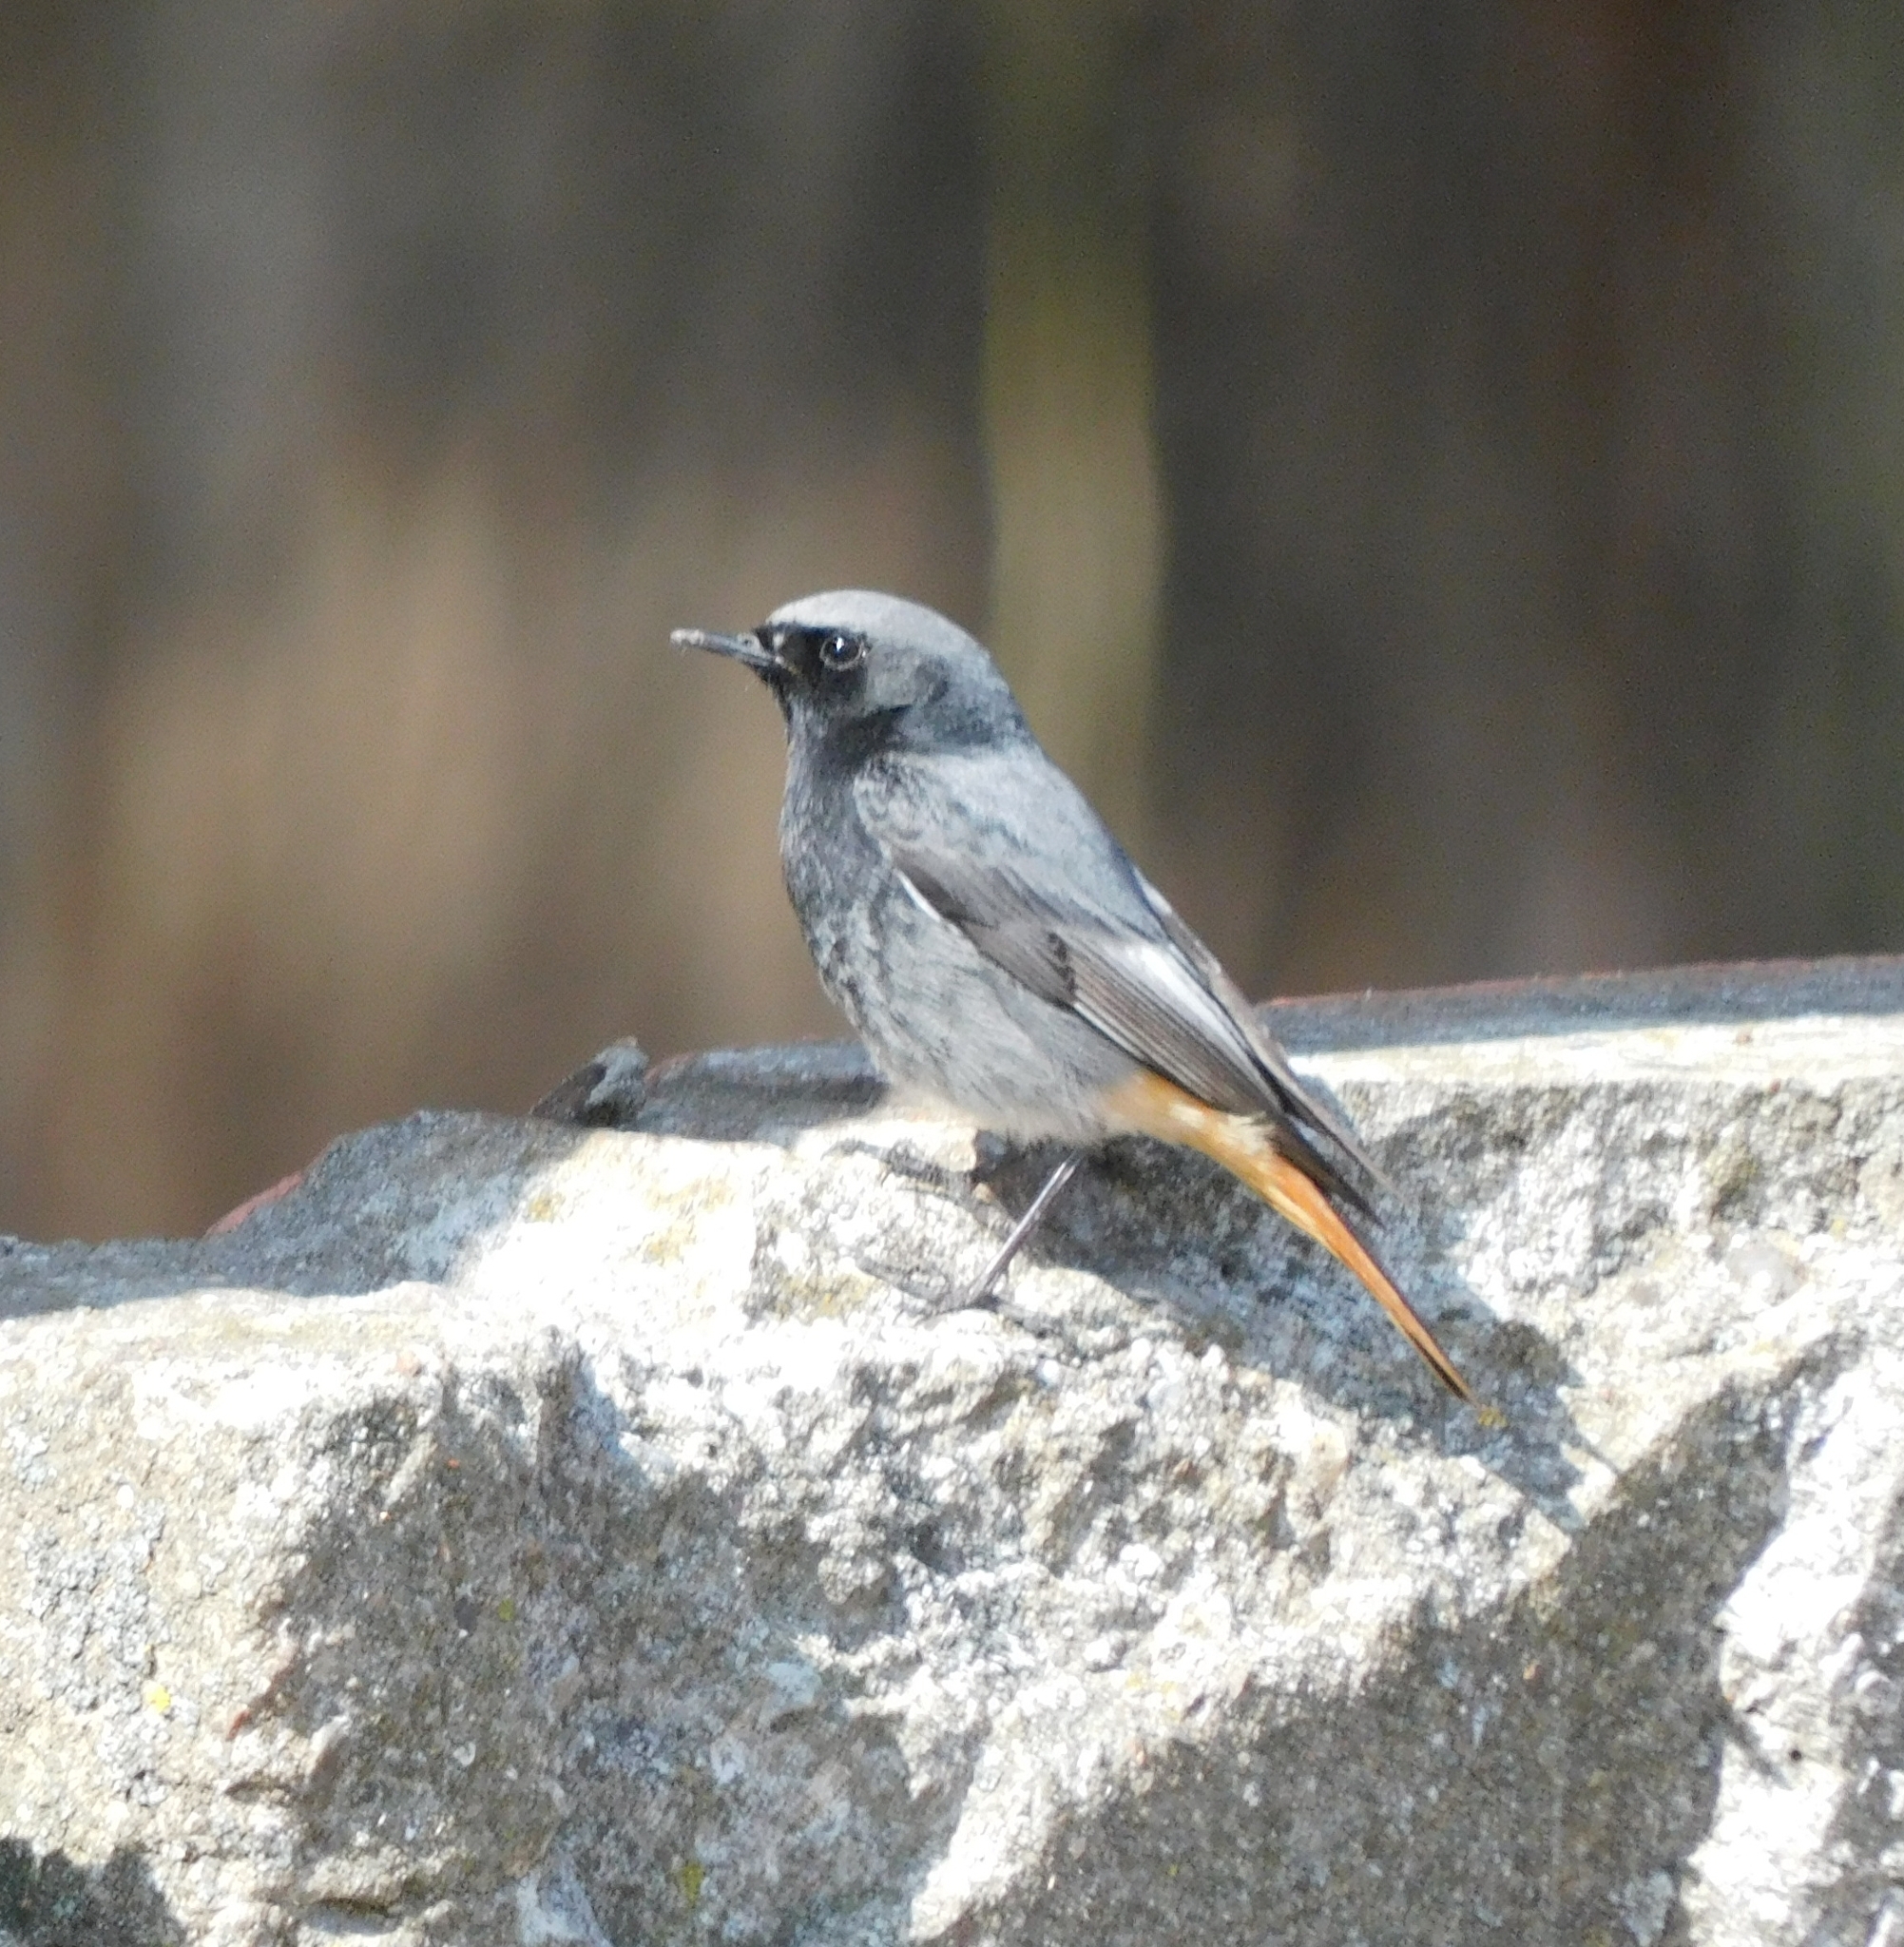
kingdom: Animalia
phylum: Chordata
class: Aves
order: Passeriformes
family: Muscicapidae
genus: Phoenicurus
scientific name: Phoenicurus ochruros
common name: Black redstart
